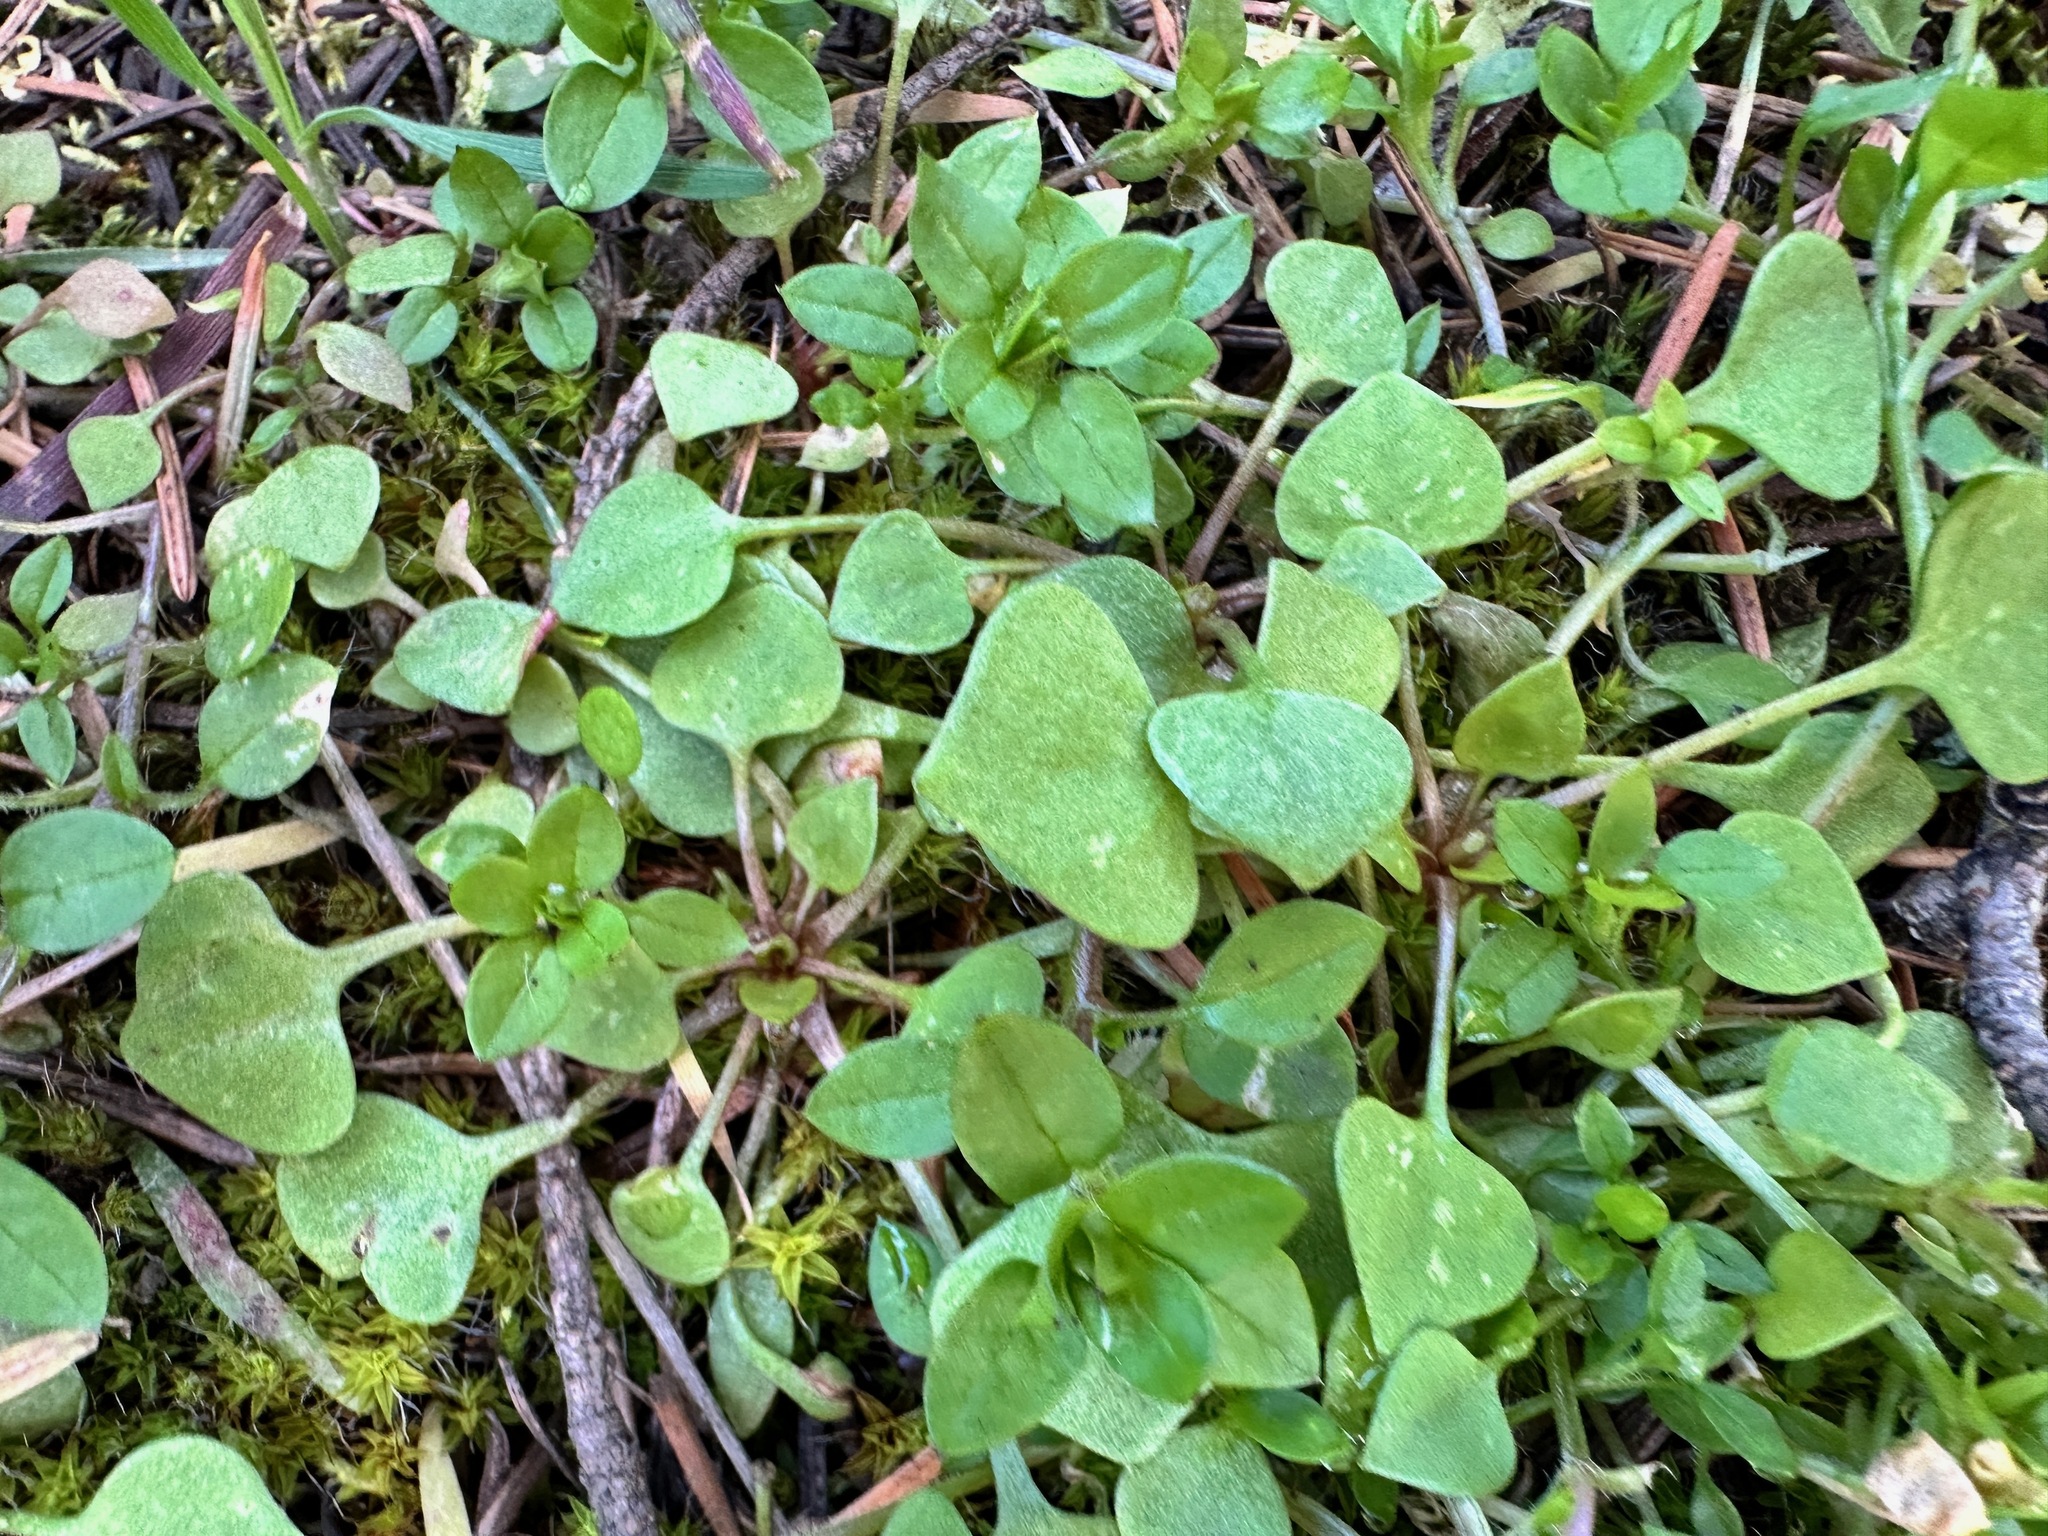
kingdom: Plantae
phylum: Tracheophyta
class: Magnoliopsida
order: Caryophyllales
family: Montiaceae
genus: Claytonia
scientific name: Claytonia rubra
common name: Erubescent miner's-lettuce
